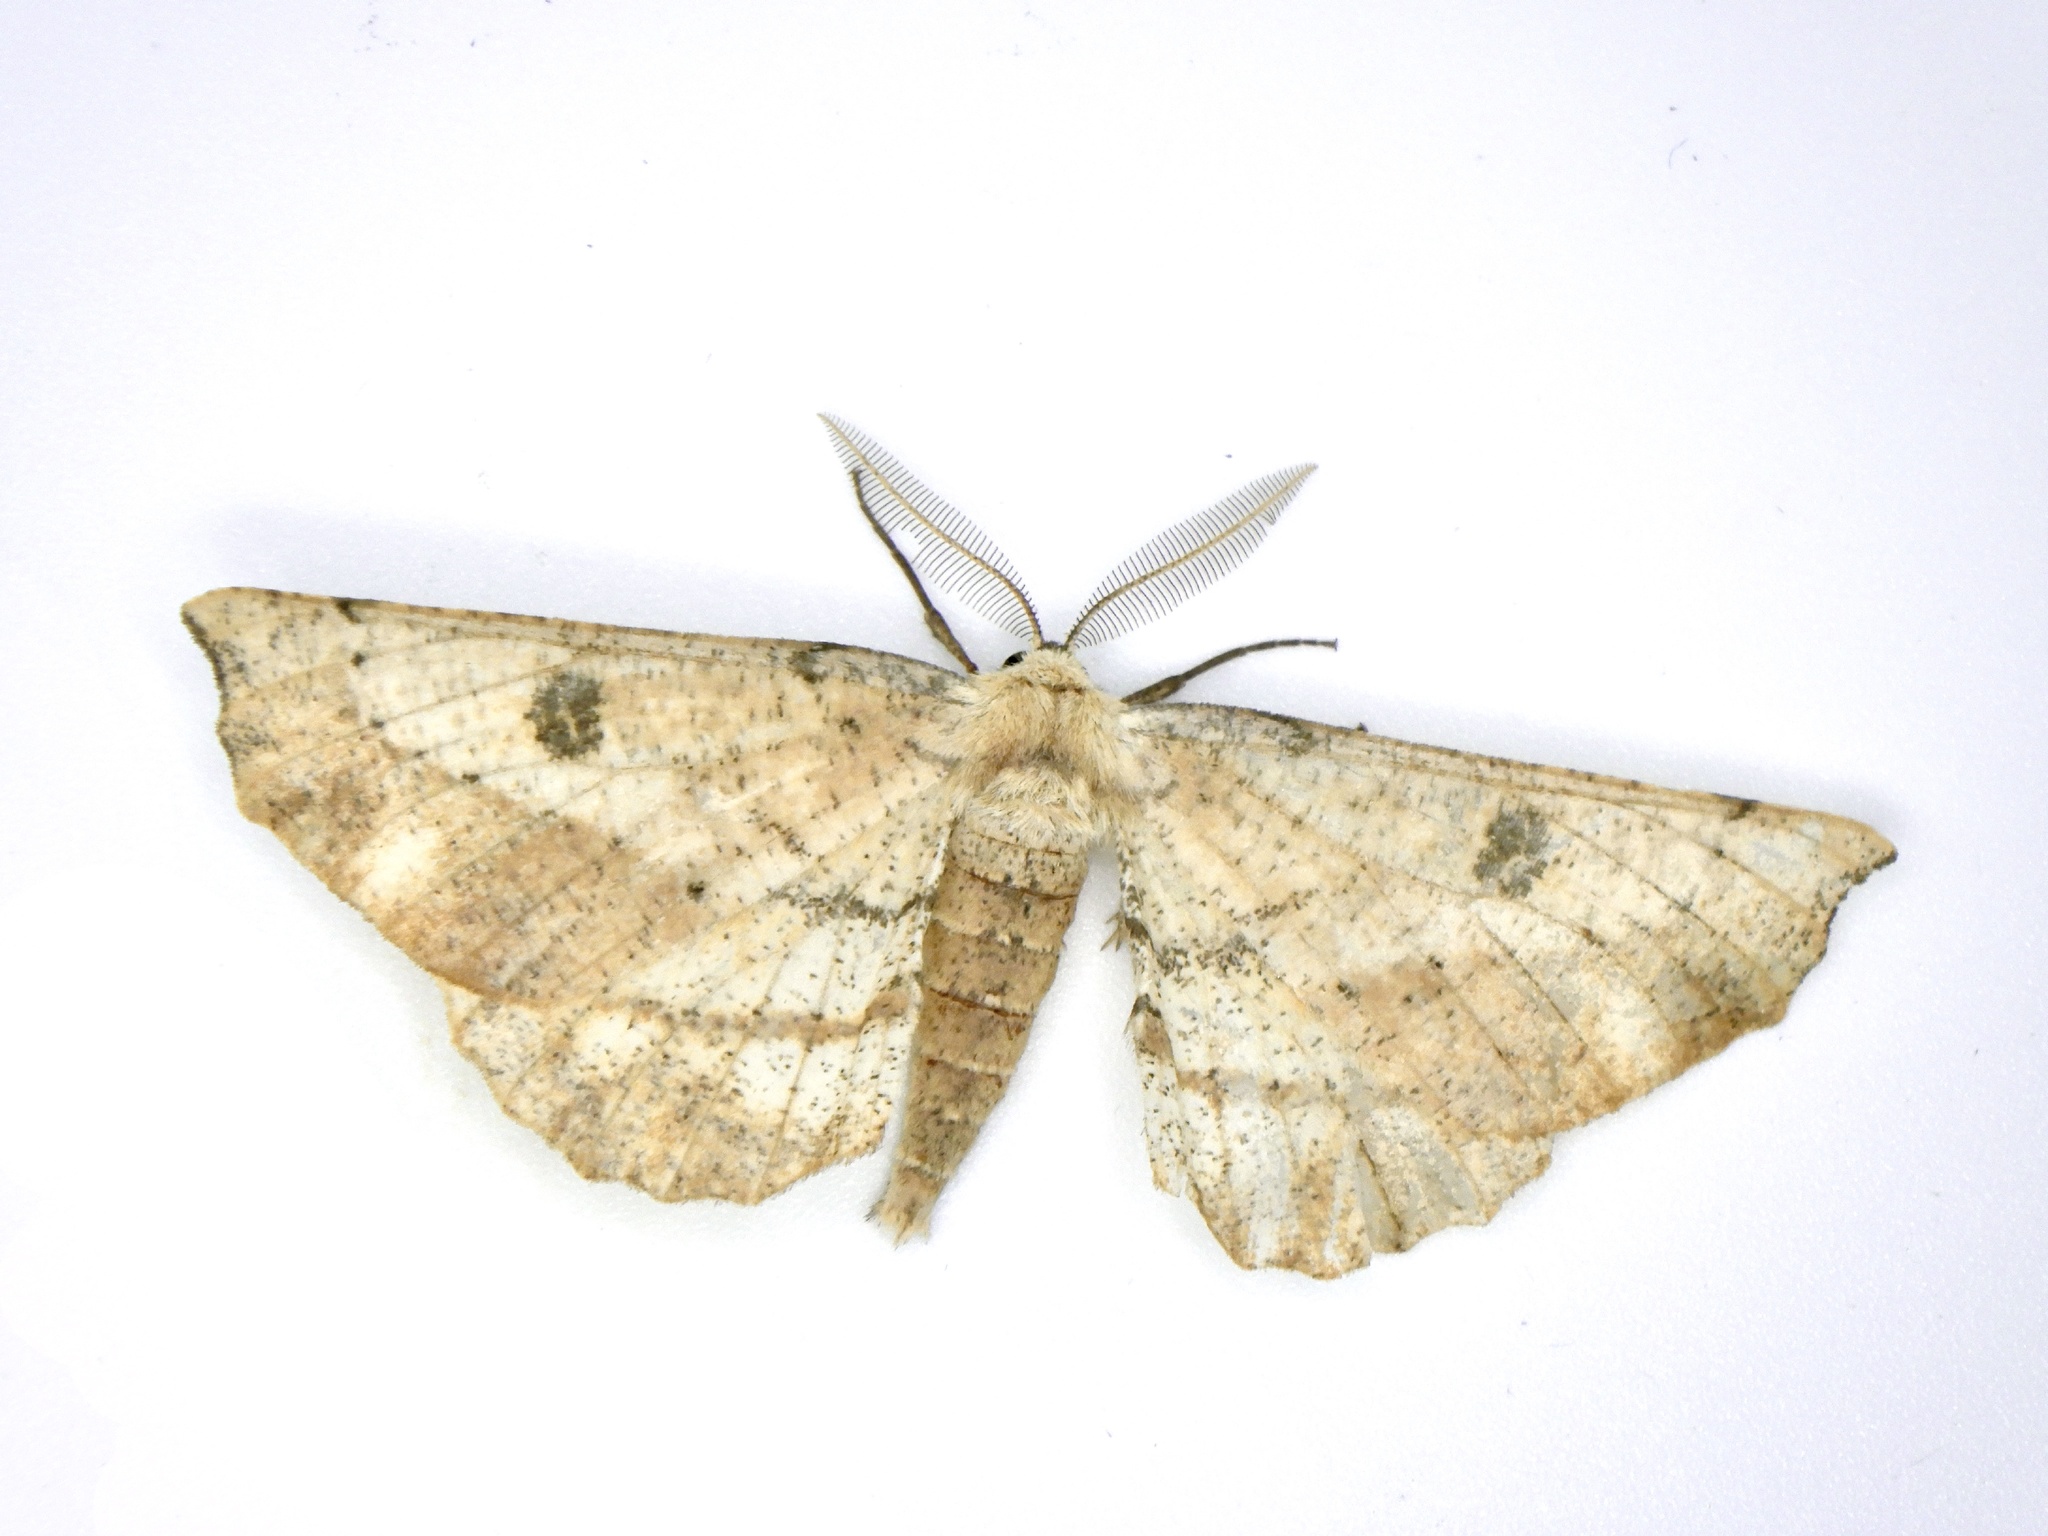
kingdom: Animalia
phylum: Arthropoda
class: Insecta
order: Lepidoptera
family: Geometridae
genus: Acrodontis
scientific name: Acrodontis kotshubeji
